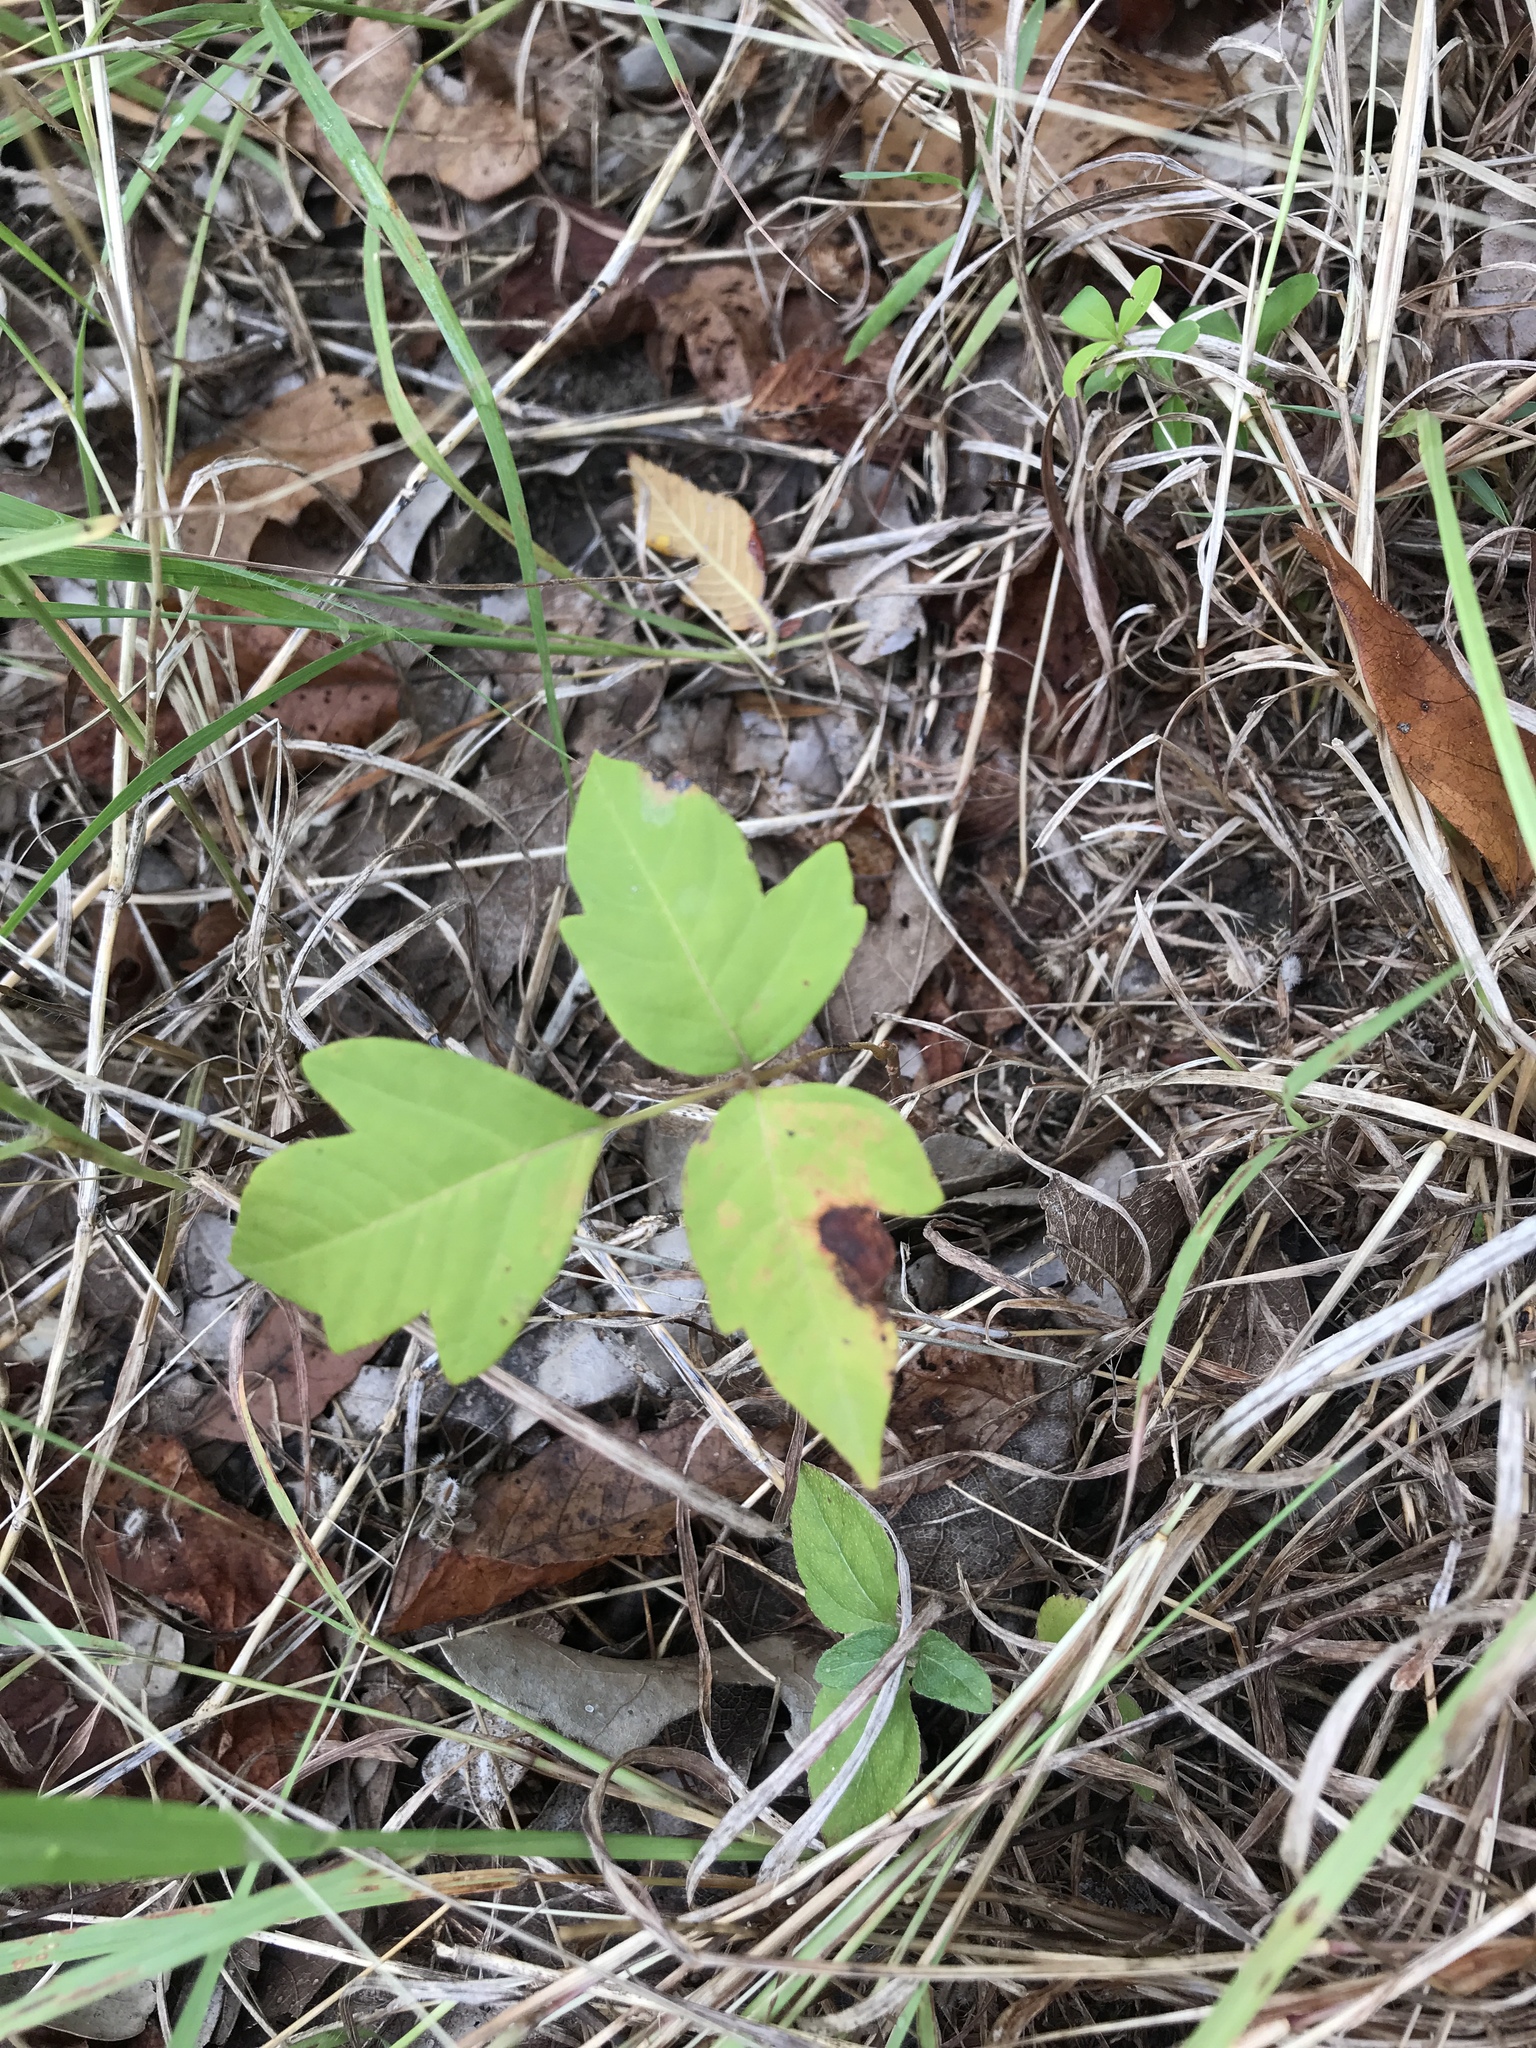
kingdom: Plantae
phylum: Tracheophyta
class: Magnoliopsida
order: Sapindales
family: Anacardiaceae
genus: Toxicodendron
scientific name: Toxicodendron radicans
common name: Poison ivy
